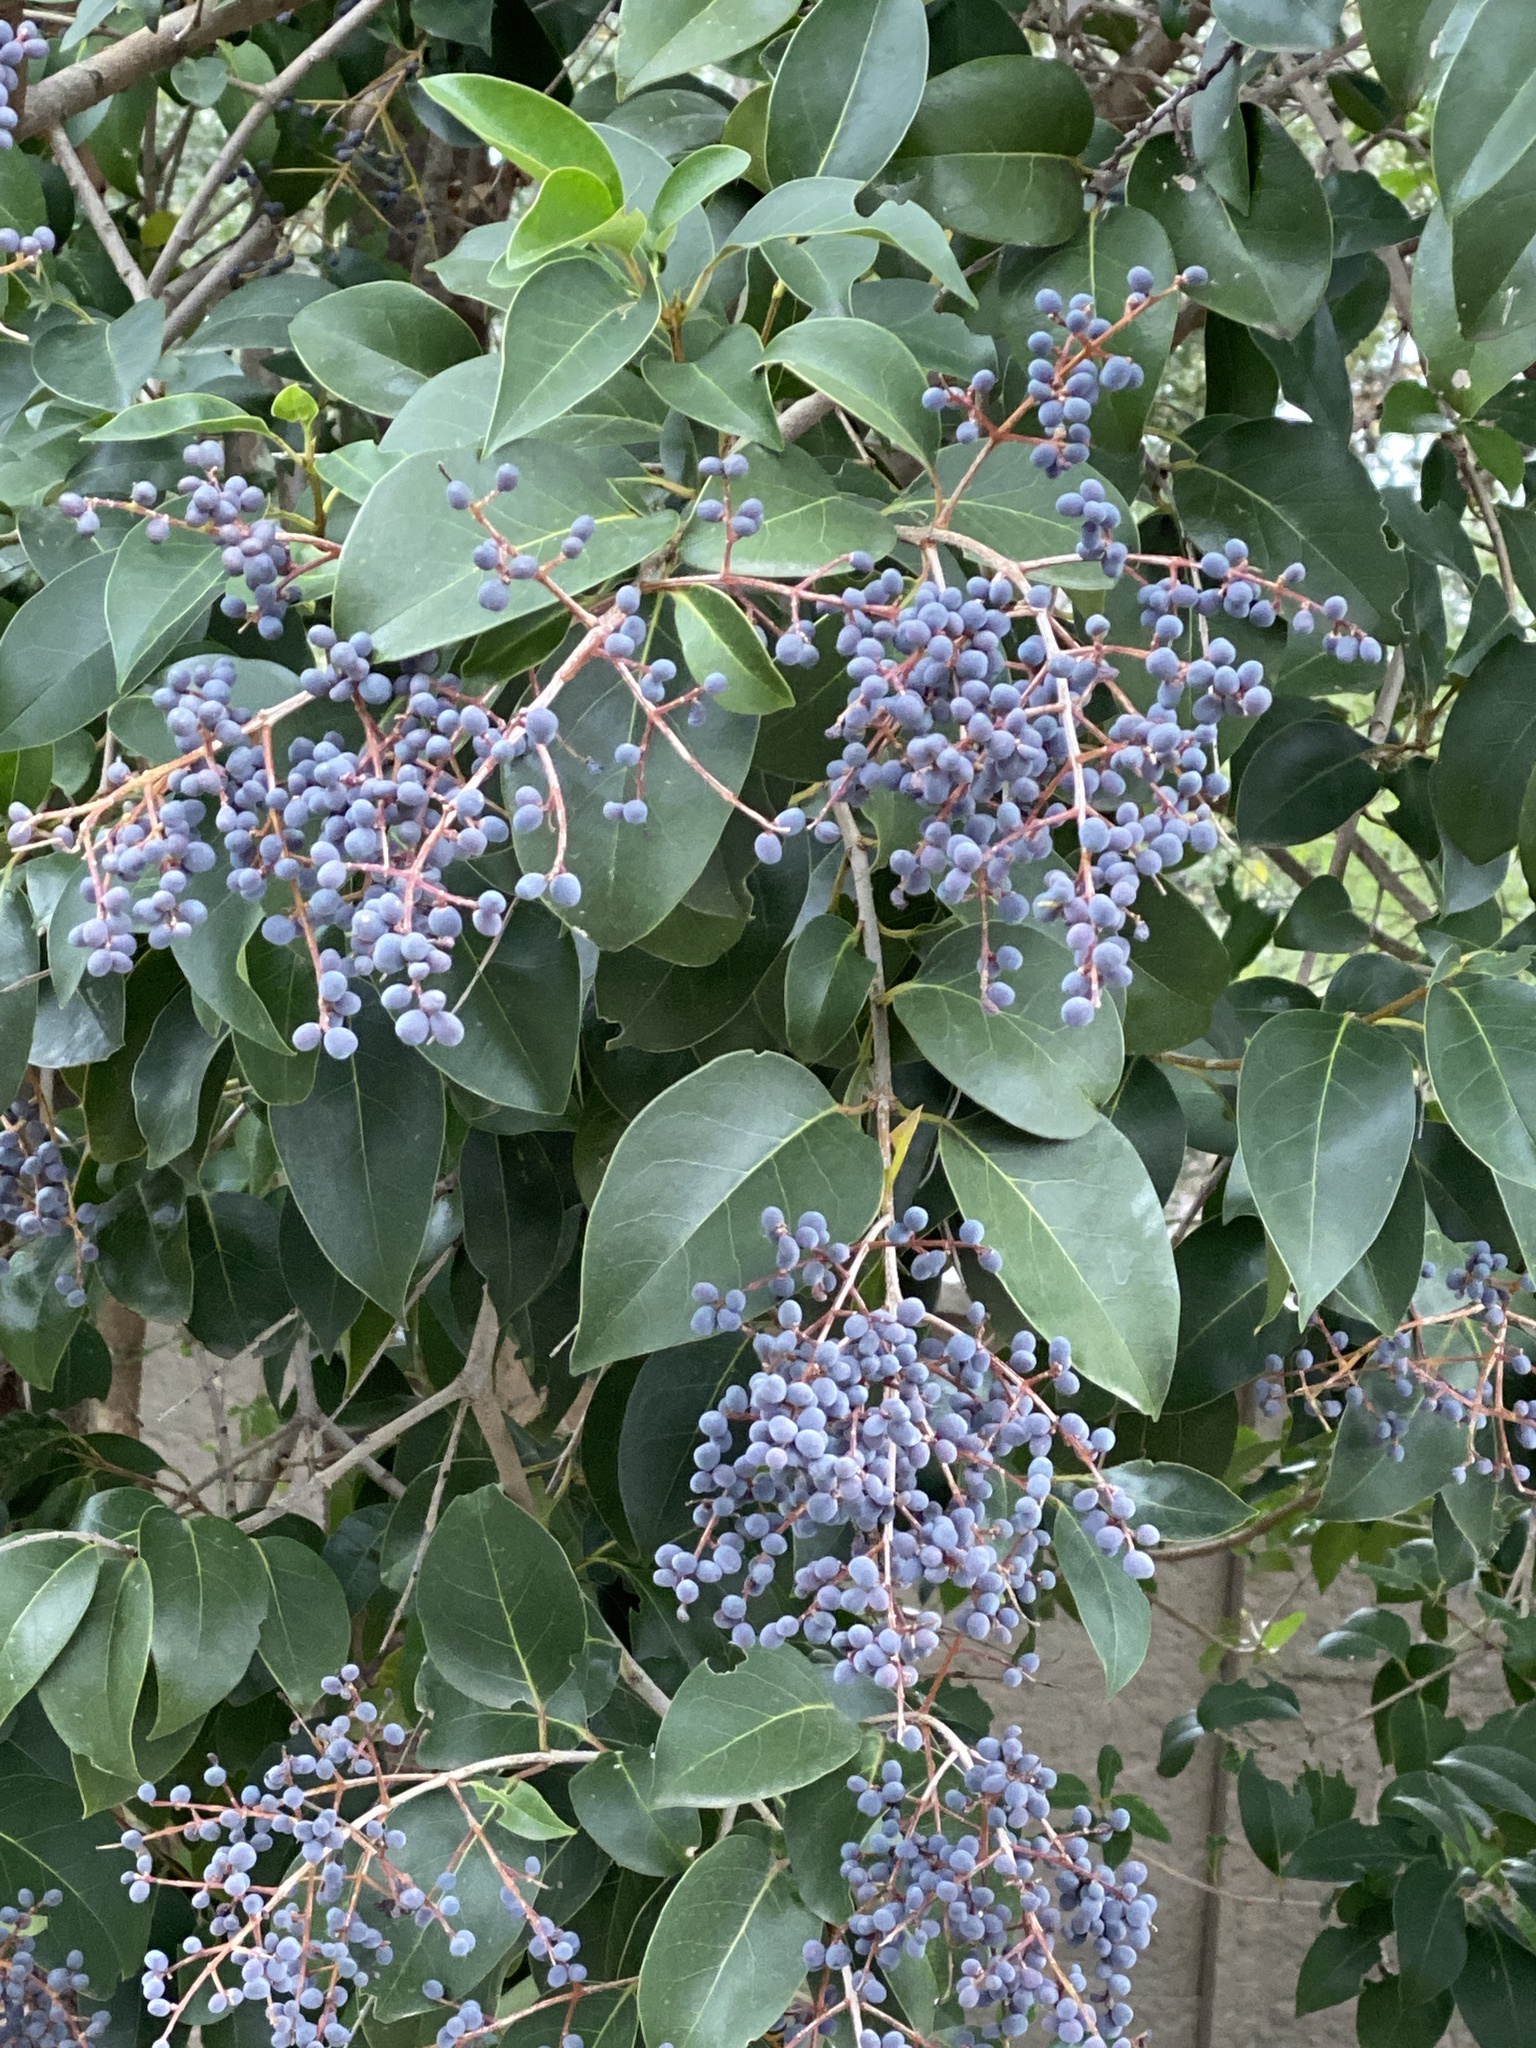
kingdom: Plantae
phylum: Tracheophyta
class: Magnoliopsida
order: Lamiales
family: Oleaceae
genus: Ligustrum
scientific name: Ligustrum lucidum
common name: Glossy privet
